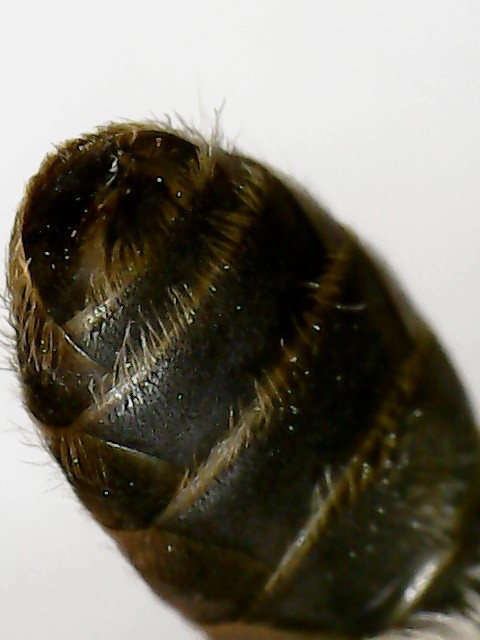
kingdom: Animalia
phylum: Arthropoda
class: Insecta
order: Hymenoptera
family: Andrenidae
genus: Andrena
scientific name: Andrena miserabilis
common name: Miserable mining bee
